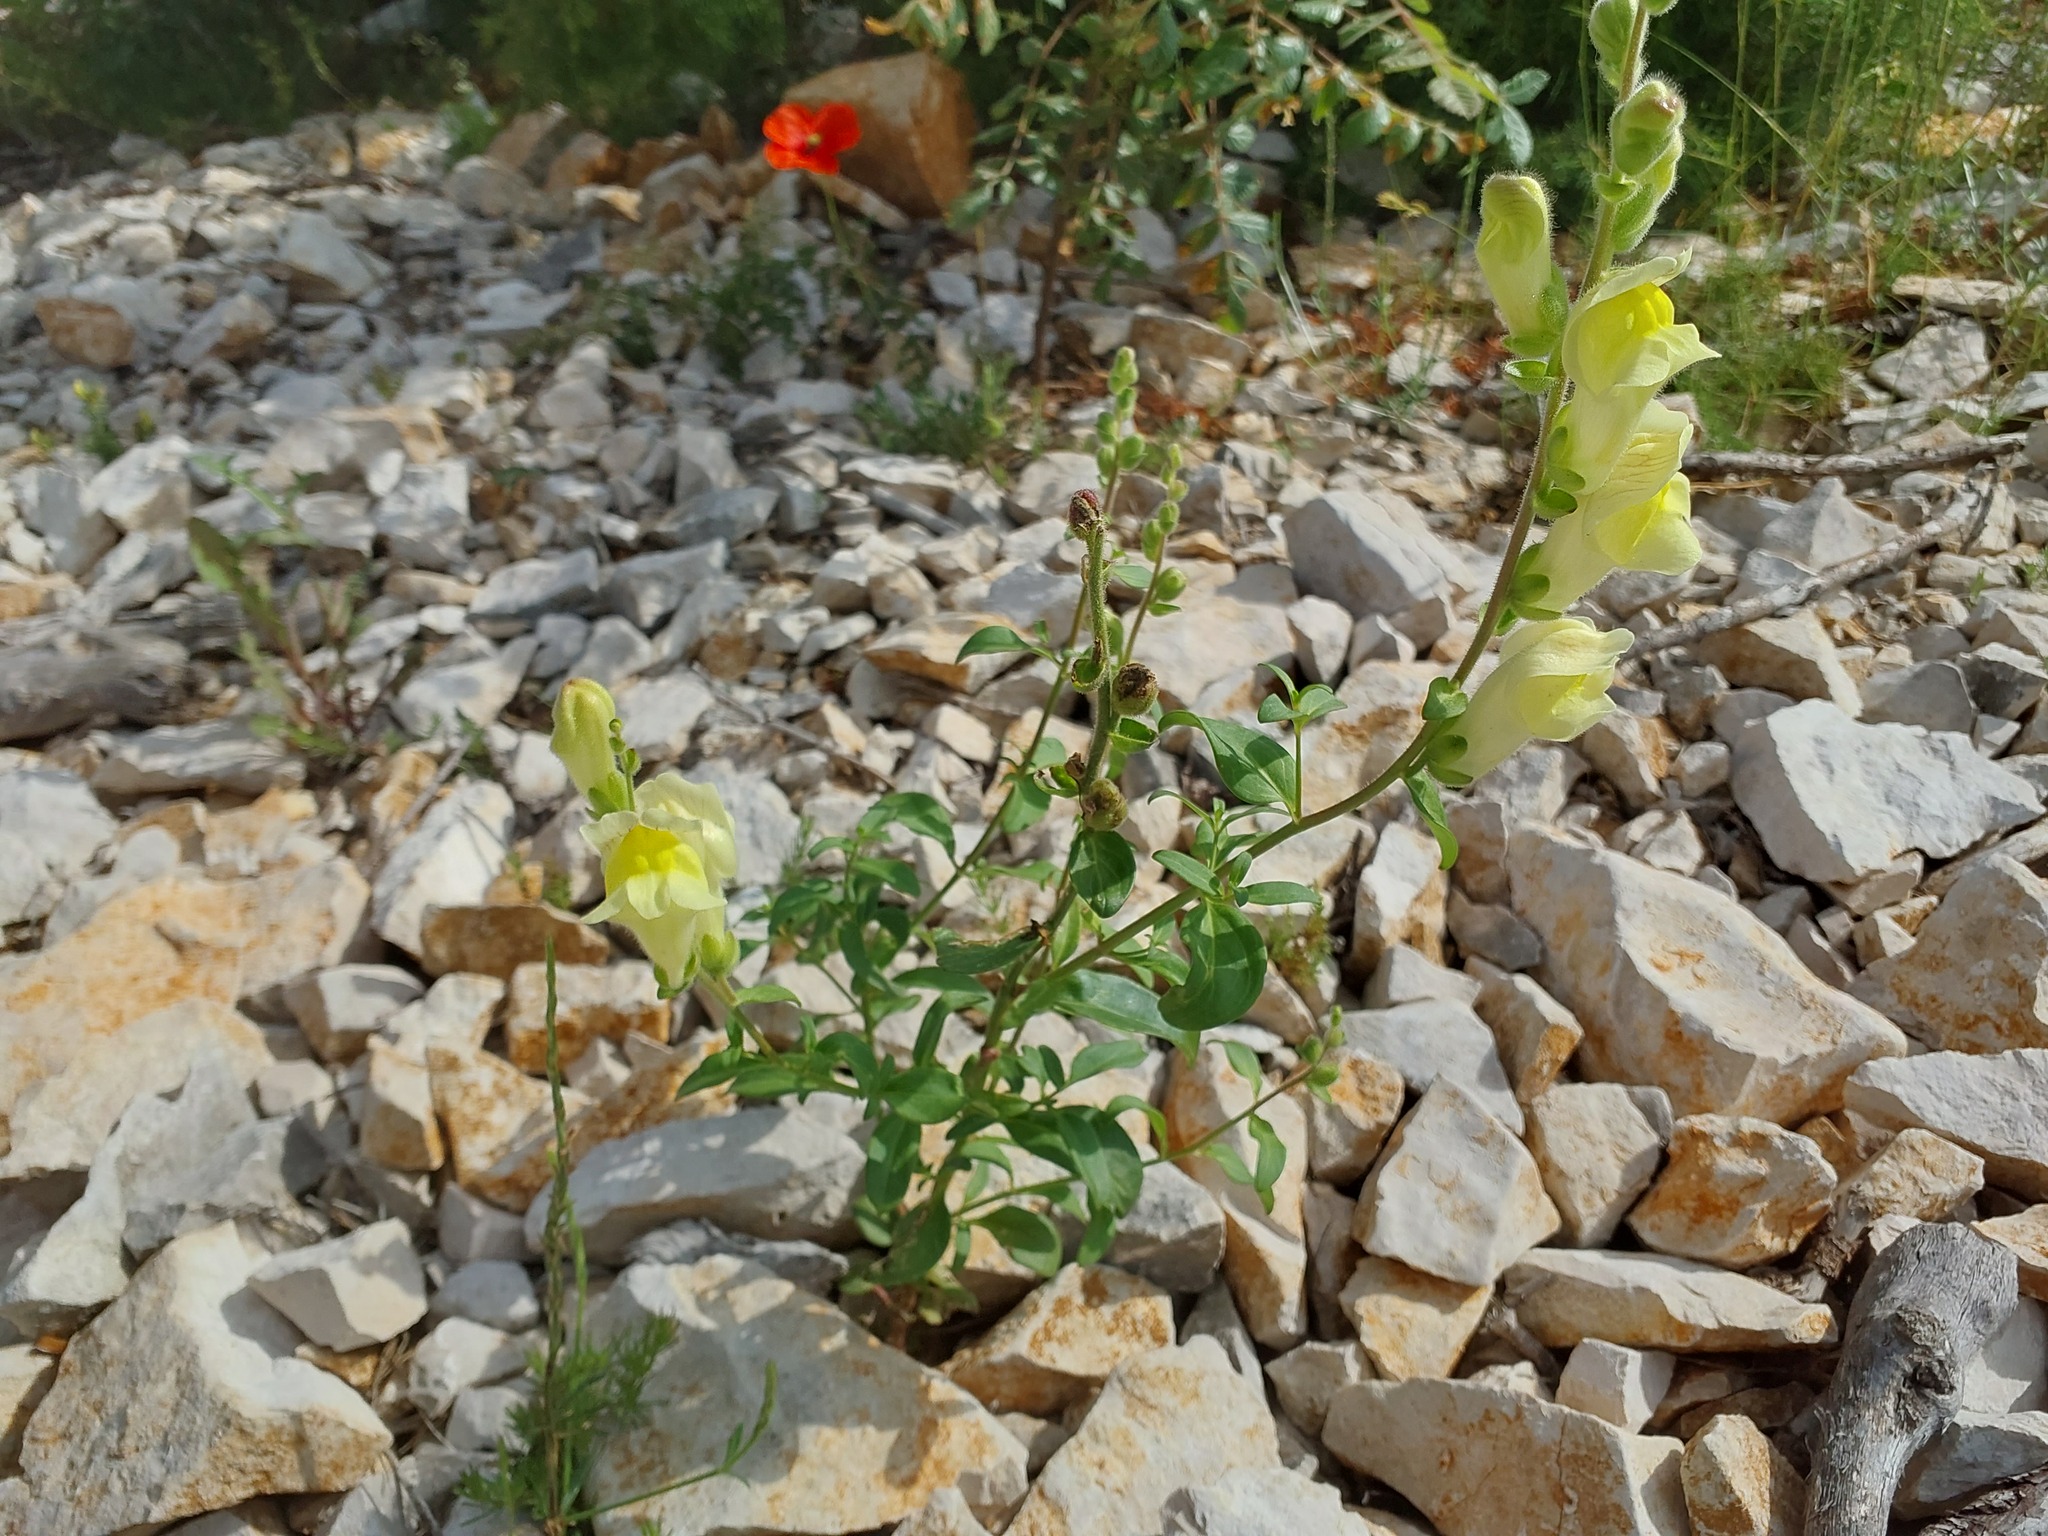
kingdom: Plantae
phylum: Tracheophyta
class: Magnoliopsida
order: Lamiales
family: Plantaginaceae
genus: Antirrhinum
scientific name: Antirrhinum latifolium
